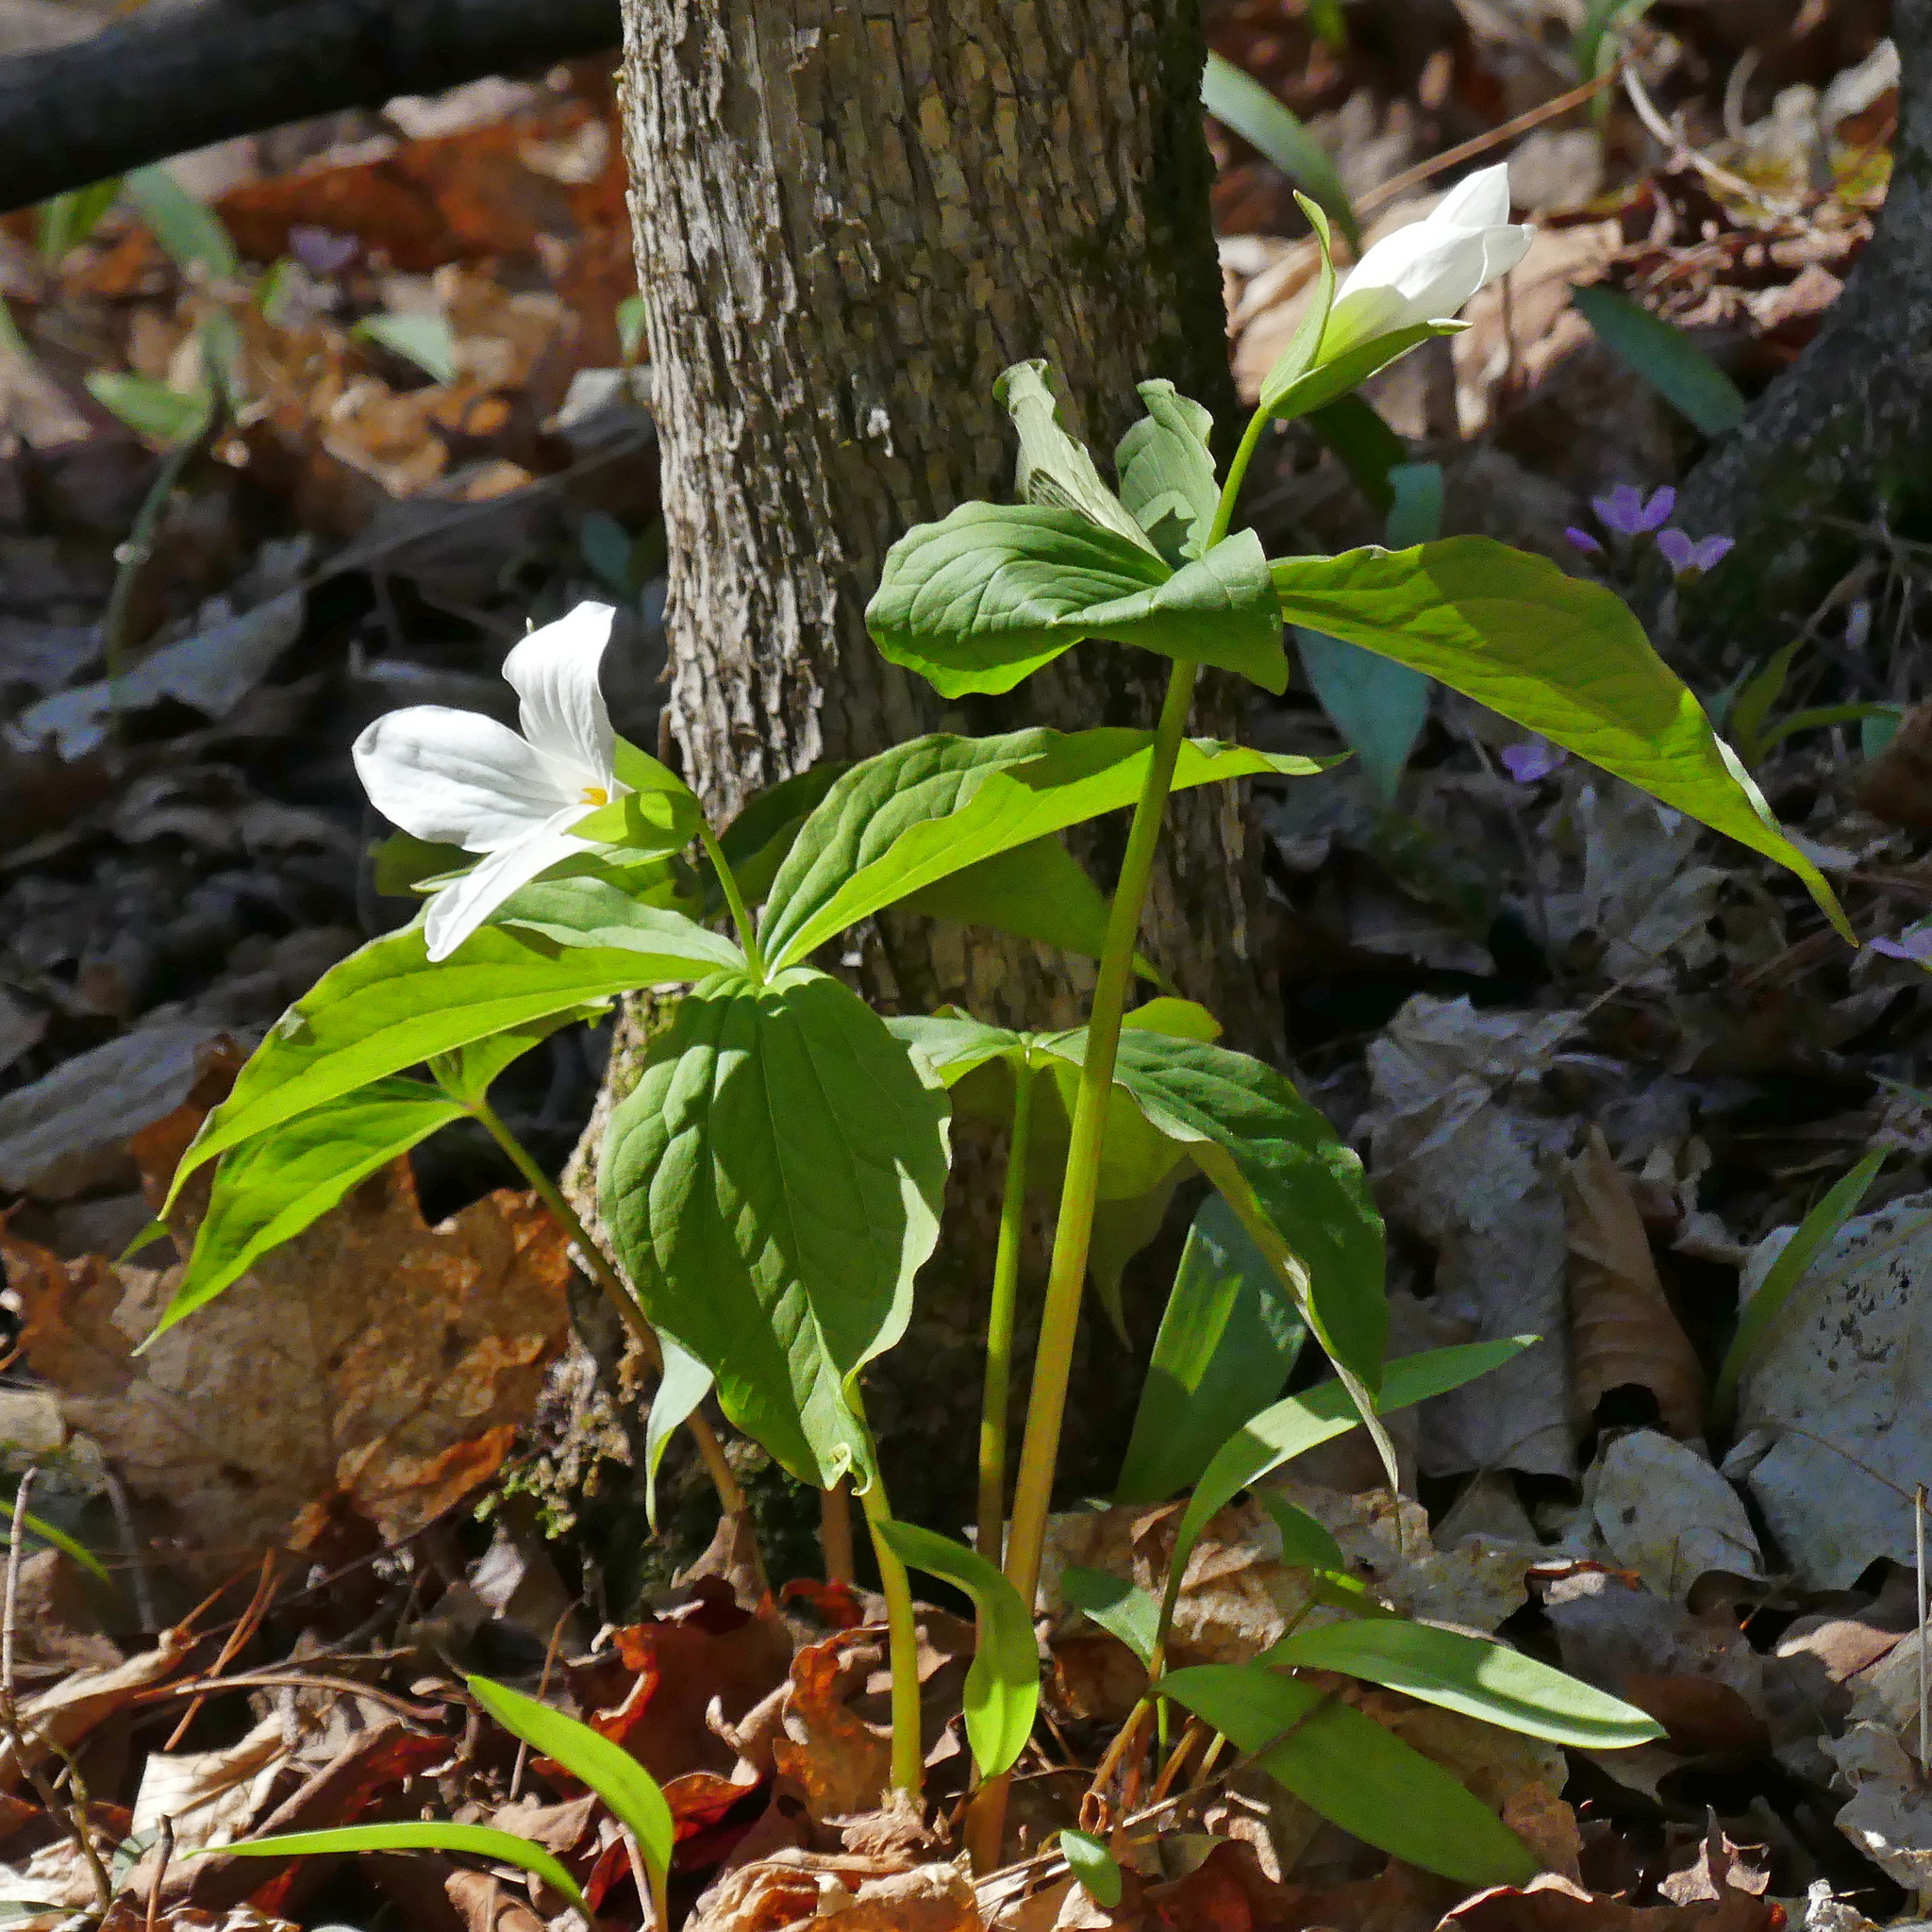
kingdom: Plantae
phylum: Tracheophyta
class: Liliopsida
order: Liliales
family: Melanthiaceae
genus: Trillium
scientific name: Trillium grandiflorum
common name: Great white trillium
